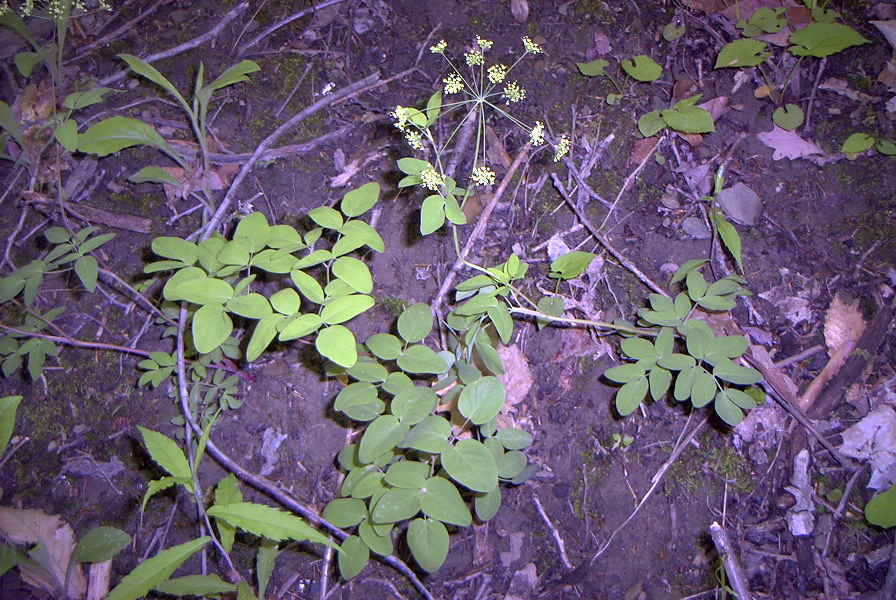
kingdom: Plantae
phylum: Tracheophyta
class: Magnoliopsida
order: Apiales
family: Apiaceae
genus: Taenidia
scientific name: Taenidia integerrima
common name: Golden alexander
